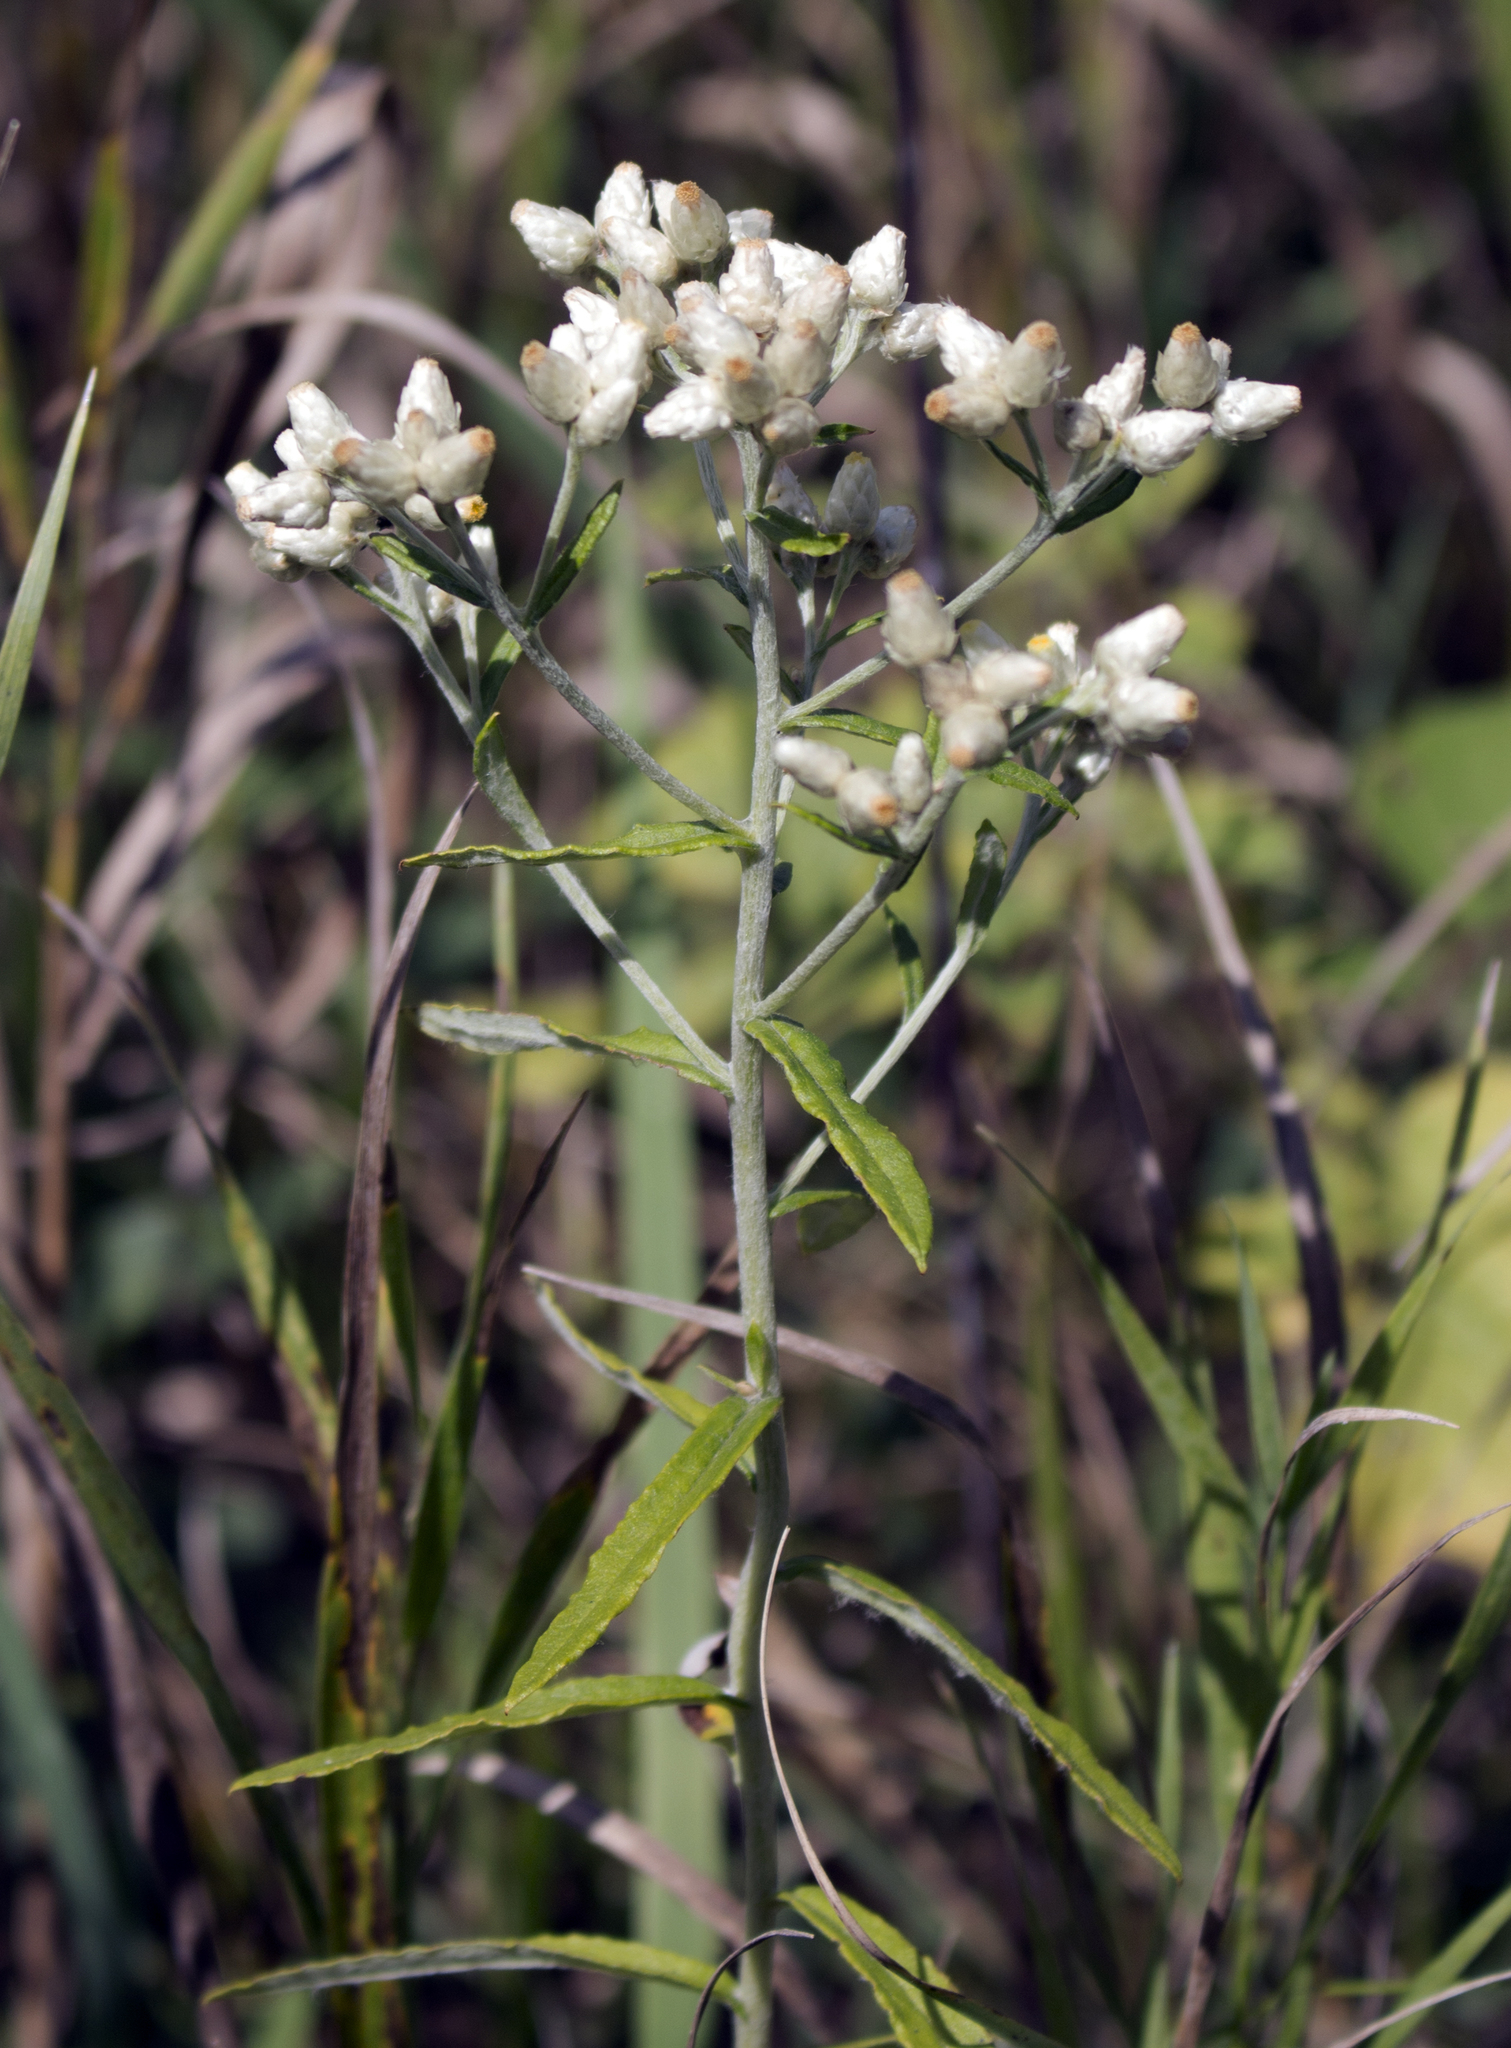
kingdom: Plantae
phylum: Tracheophyta
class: Magnoliopsida
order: Asterales
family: Asteraceae
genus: Pseudognaphalium
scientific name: Pseudognaphalium obtusifolium
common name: Eastern rabbit-tobacco
